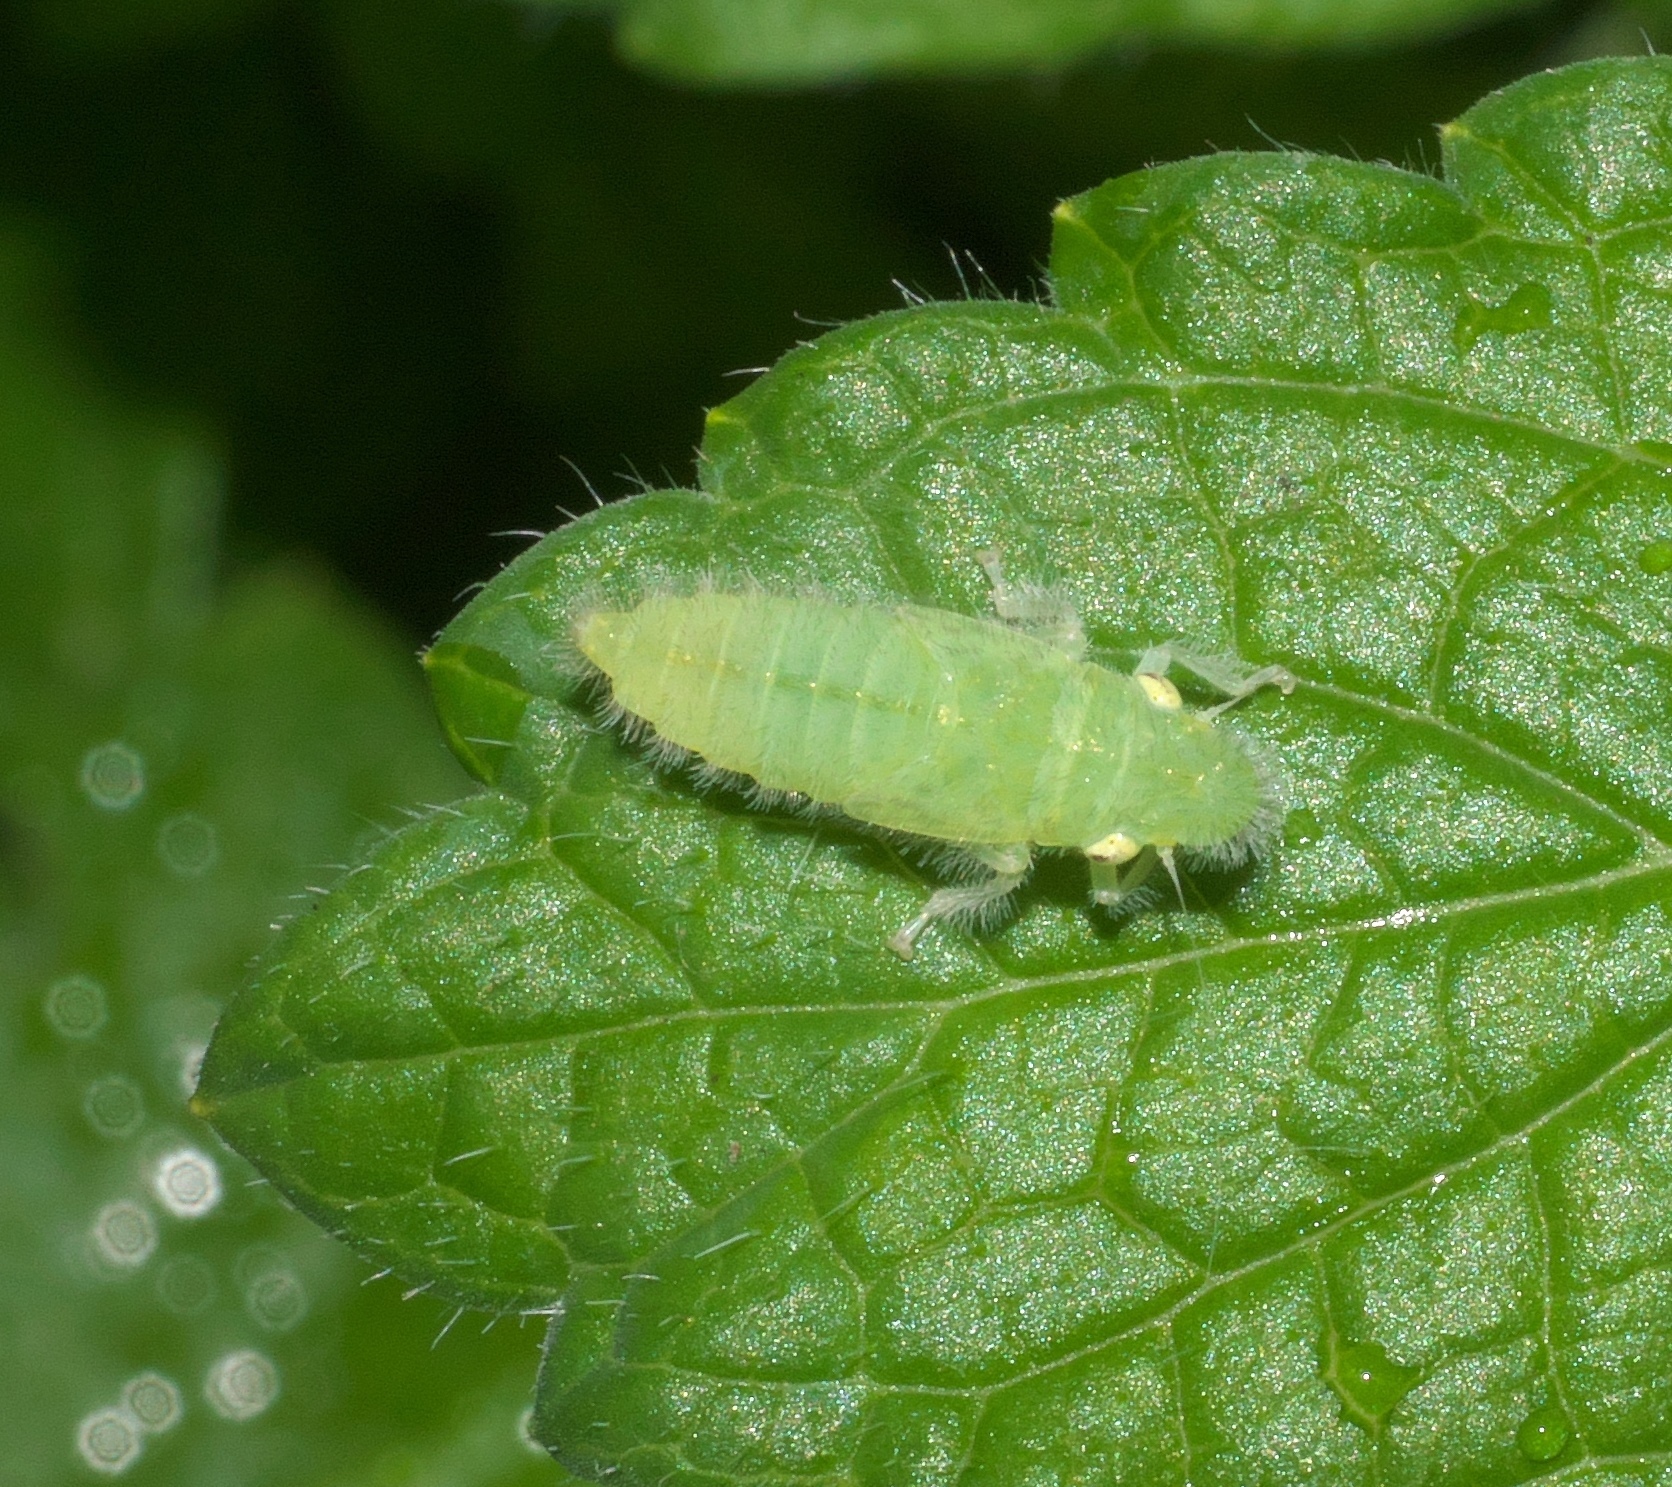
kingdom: Animalia
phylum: Arthropoda
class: Insecta
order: Hemiptera
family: Cicadellidae
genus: Paraulacizes
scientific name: Paraulacizes irrorata
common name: Speckled sharpshooter
